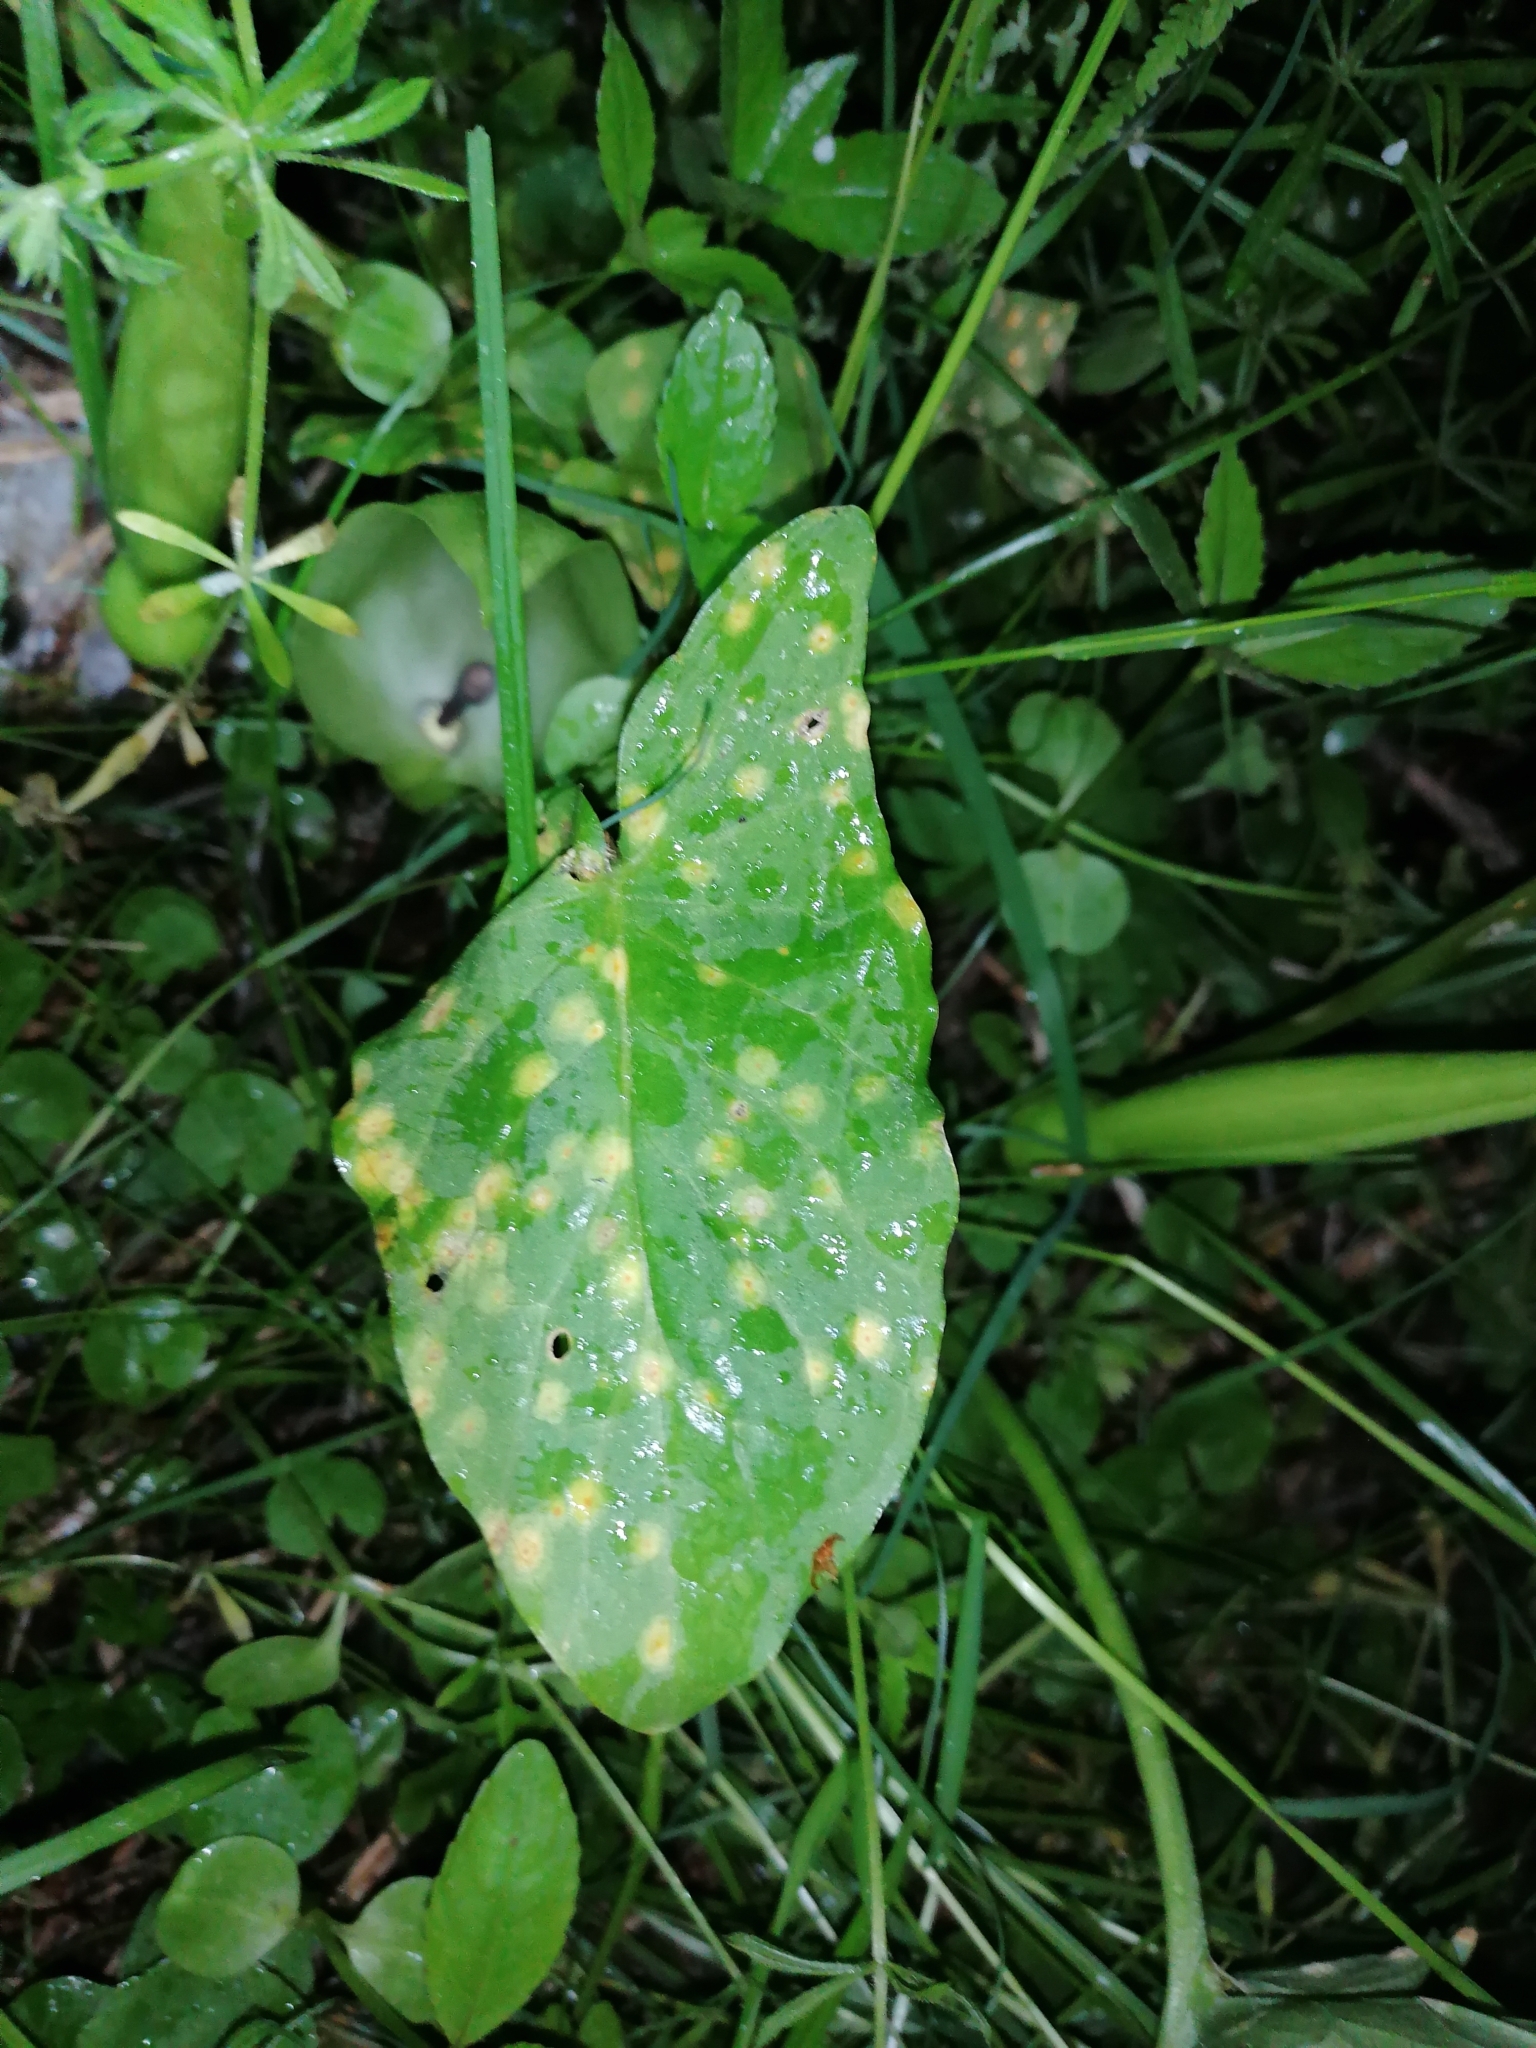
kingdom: Plantae
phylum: Tracheophyta
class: Liliopsida
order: Alismatales
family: Araceae
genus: Arum
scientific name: Arum maculatum
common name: Lords-and-ladies
